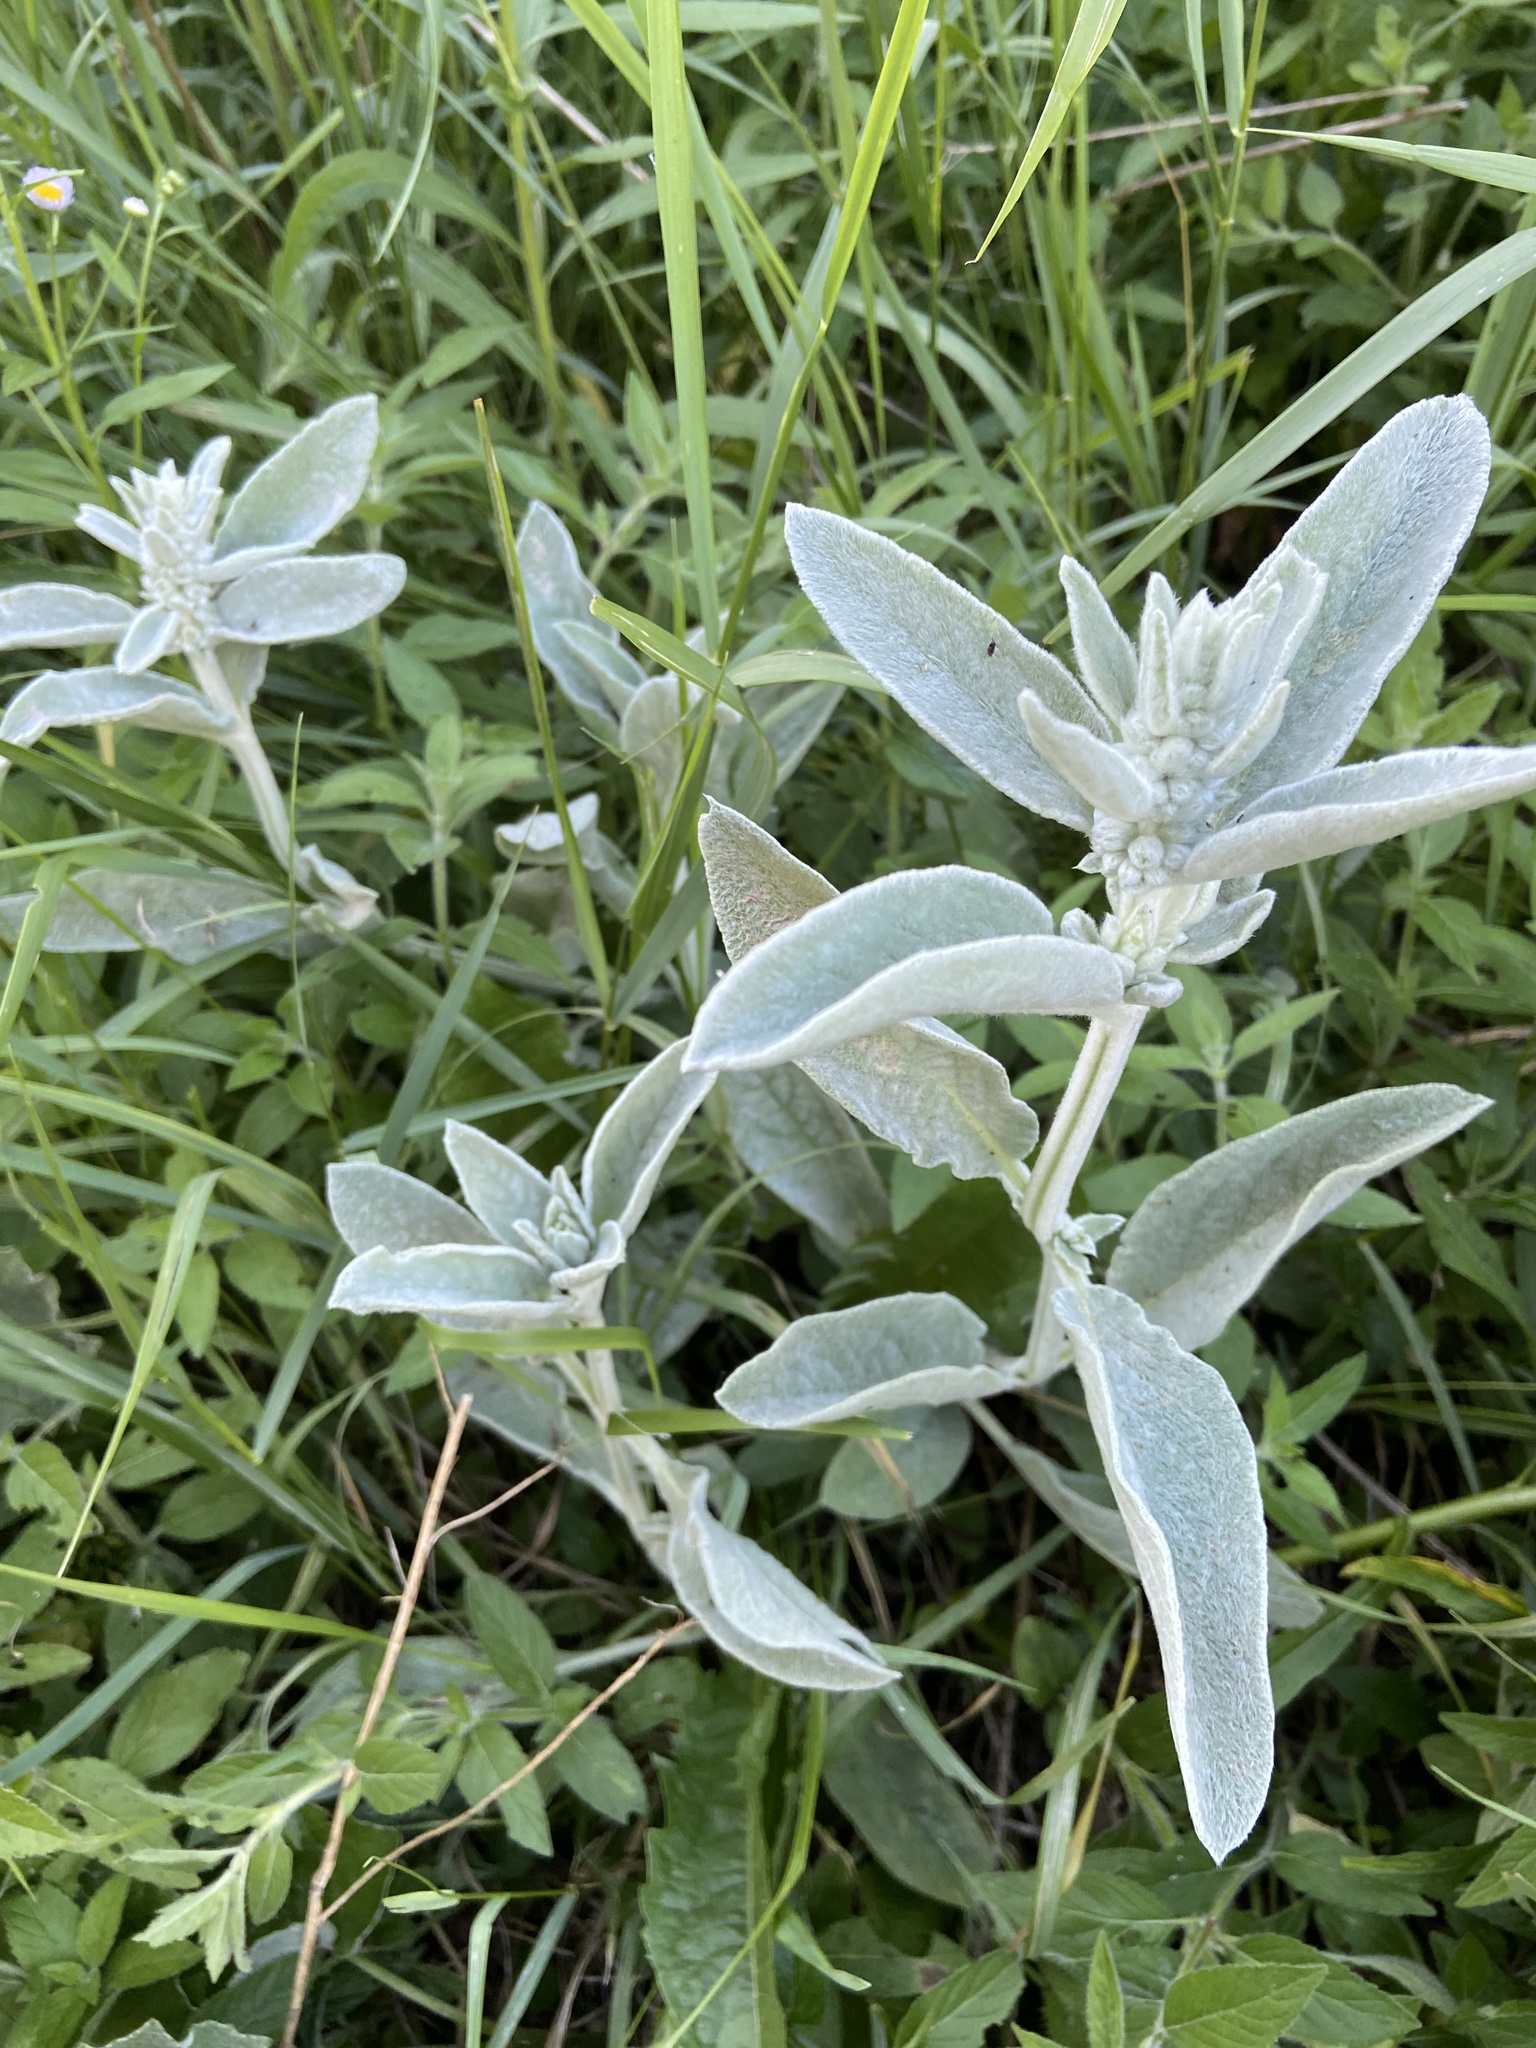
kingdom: Plantae
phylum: Tracheophyta
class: Magnoliopsida
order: Lamiales
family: Lamiaceae
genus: Stachys
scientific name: Stachys byzantina
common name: Lamb's-ear
